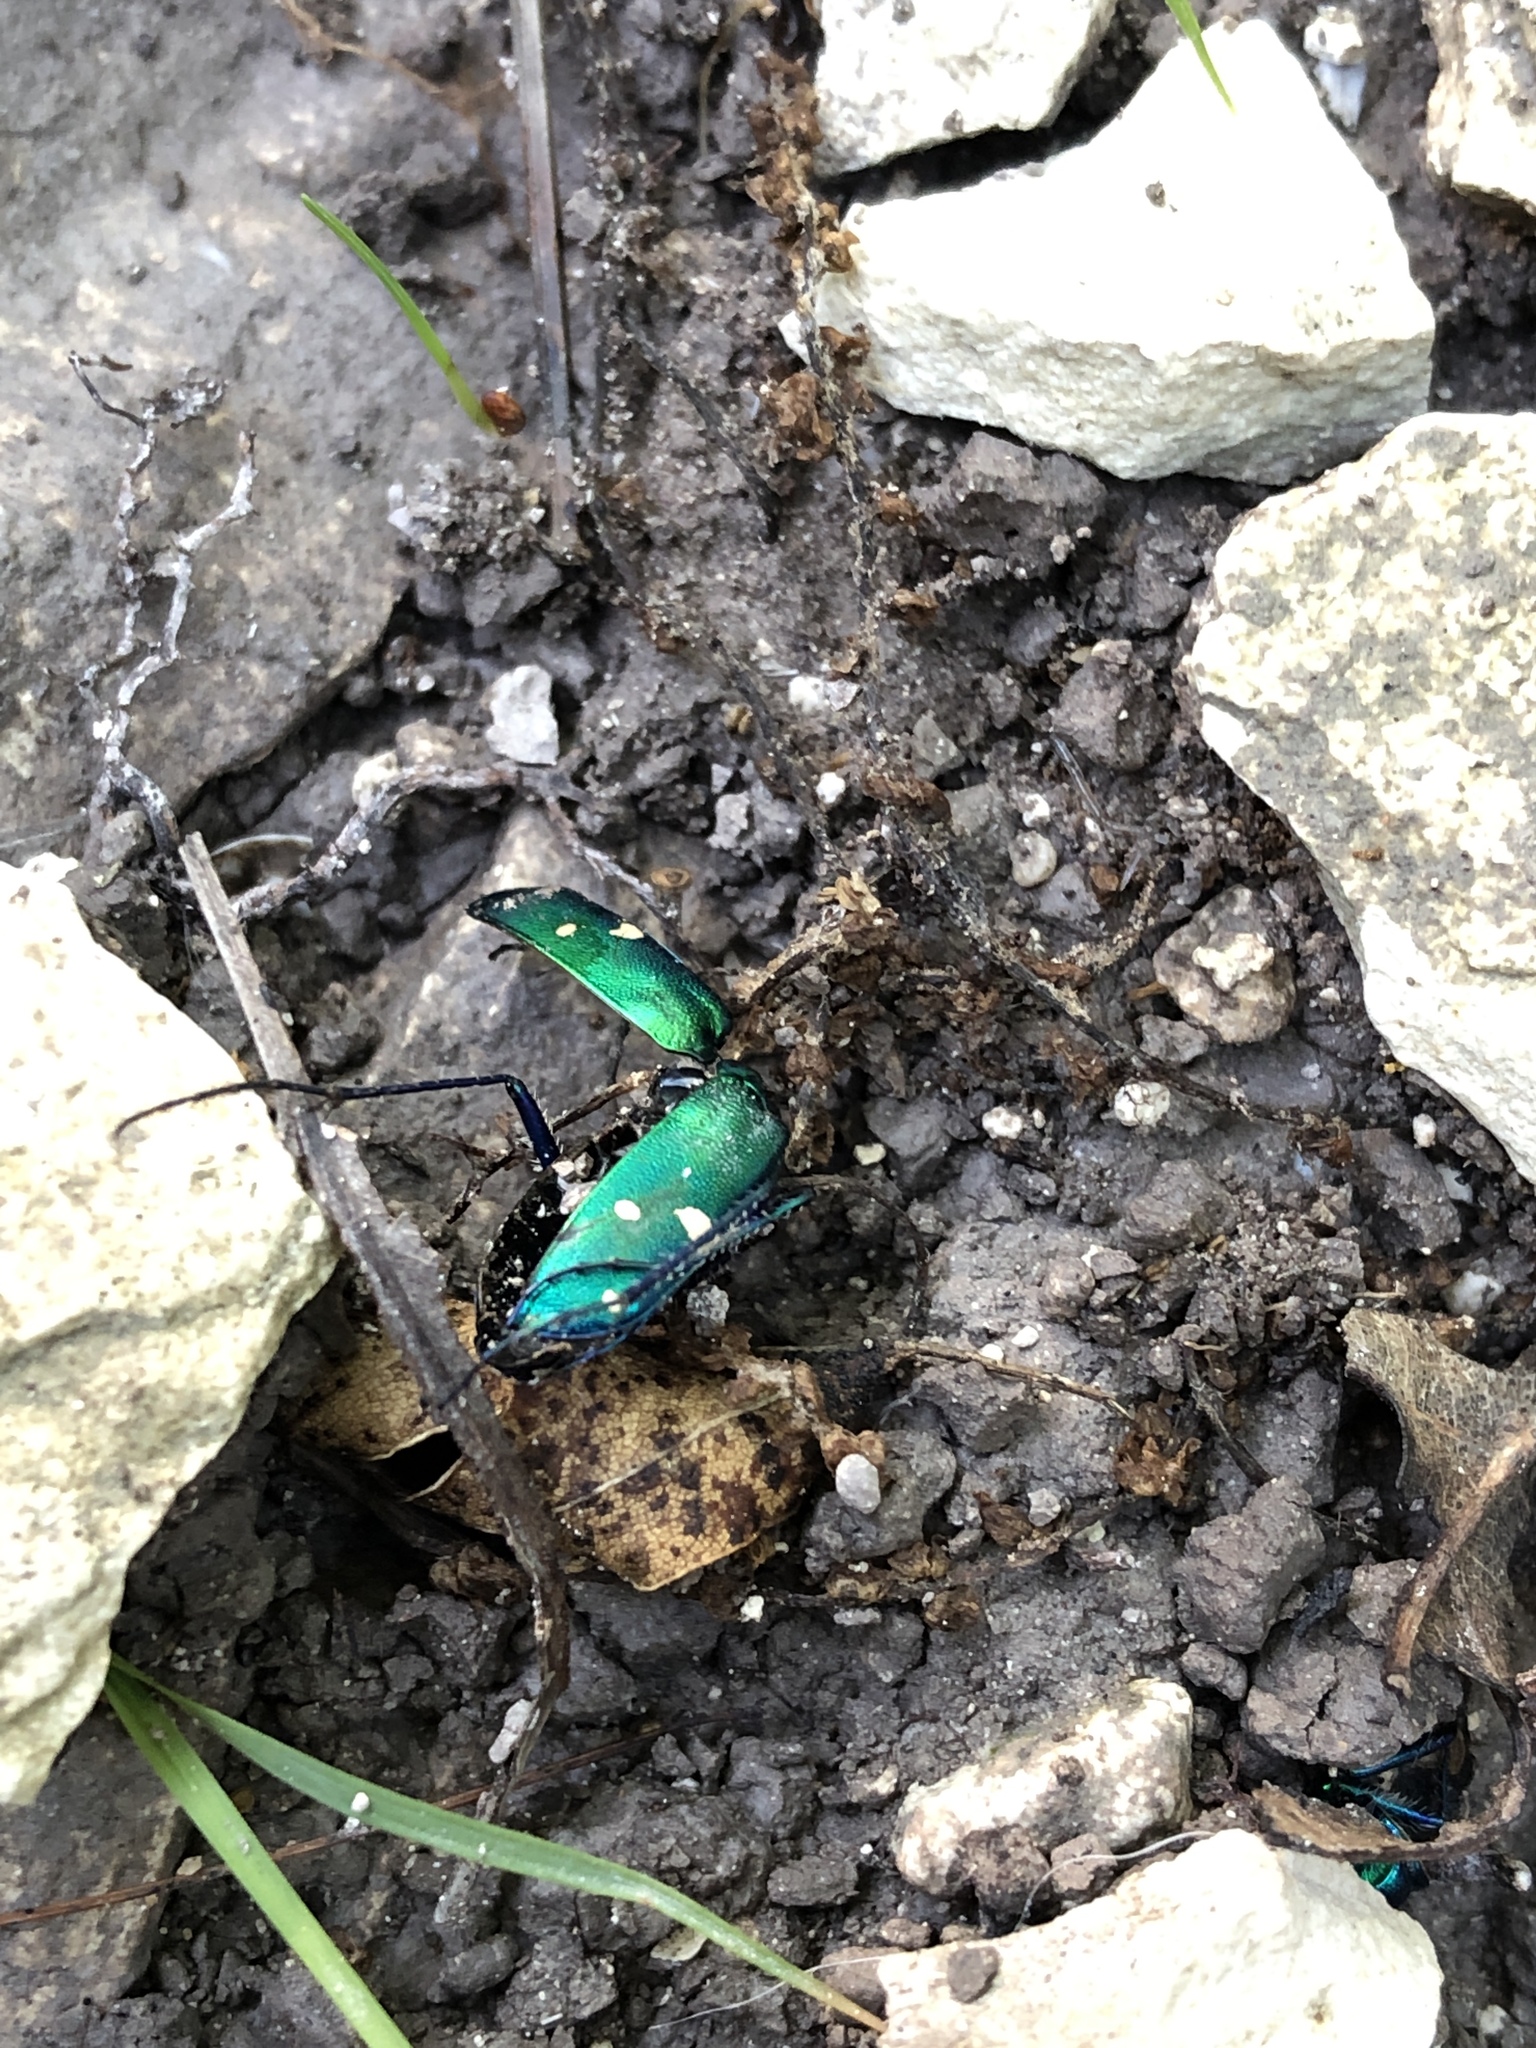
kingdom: Animalia
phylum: Arthropoda
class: Insecta
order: Coleoptera
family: Carabidae
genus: Cicindela
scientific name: Cicindela sexguttata
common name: Six-spotted tiger beetle
